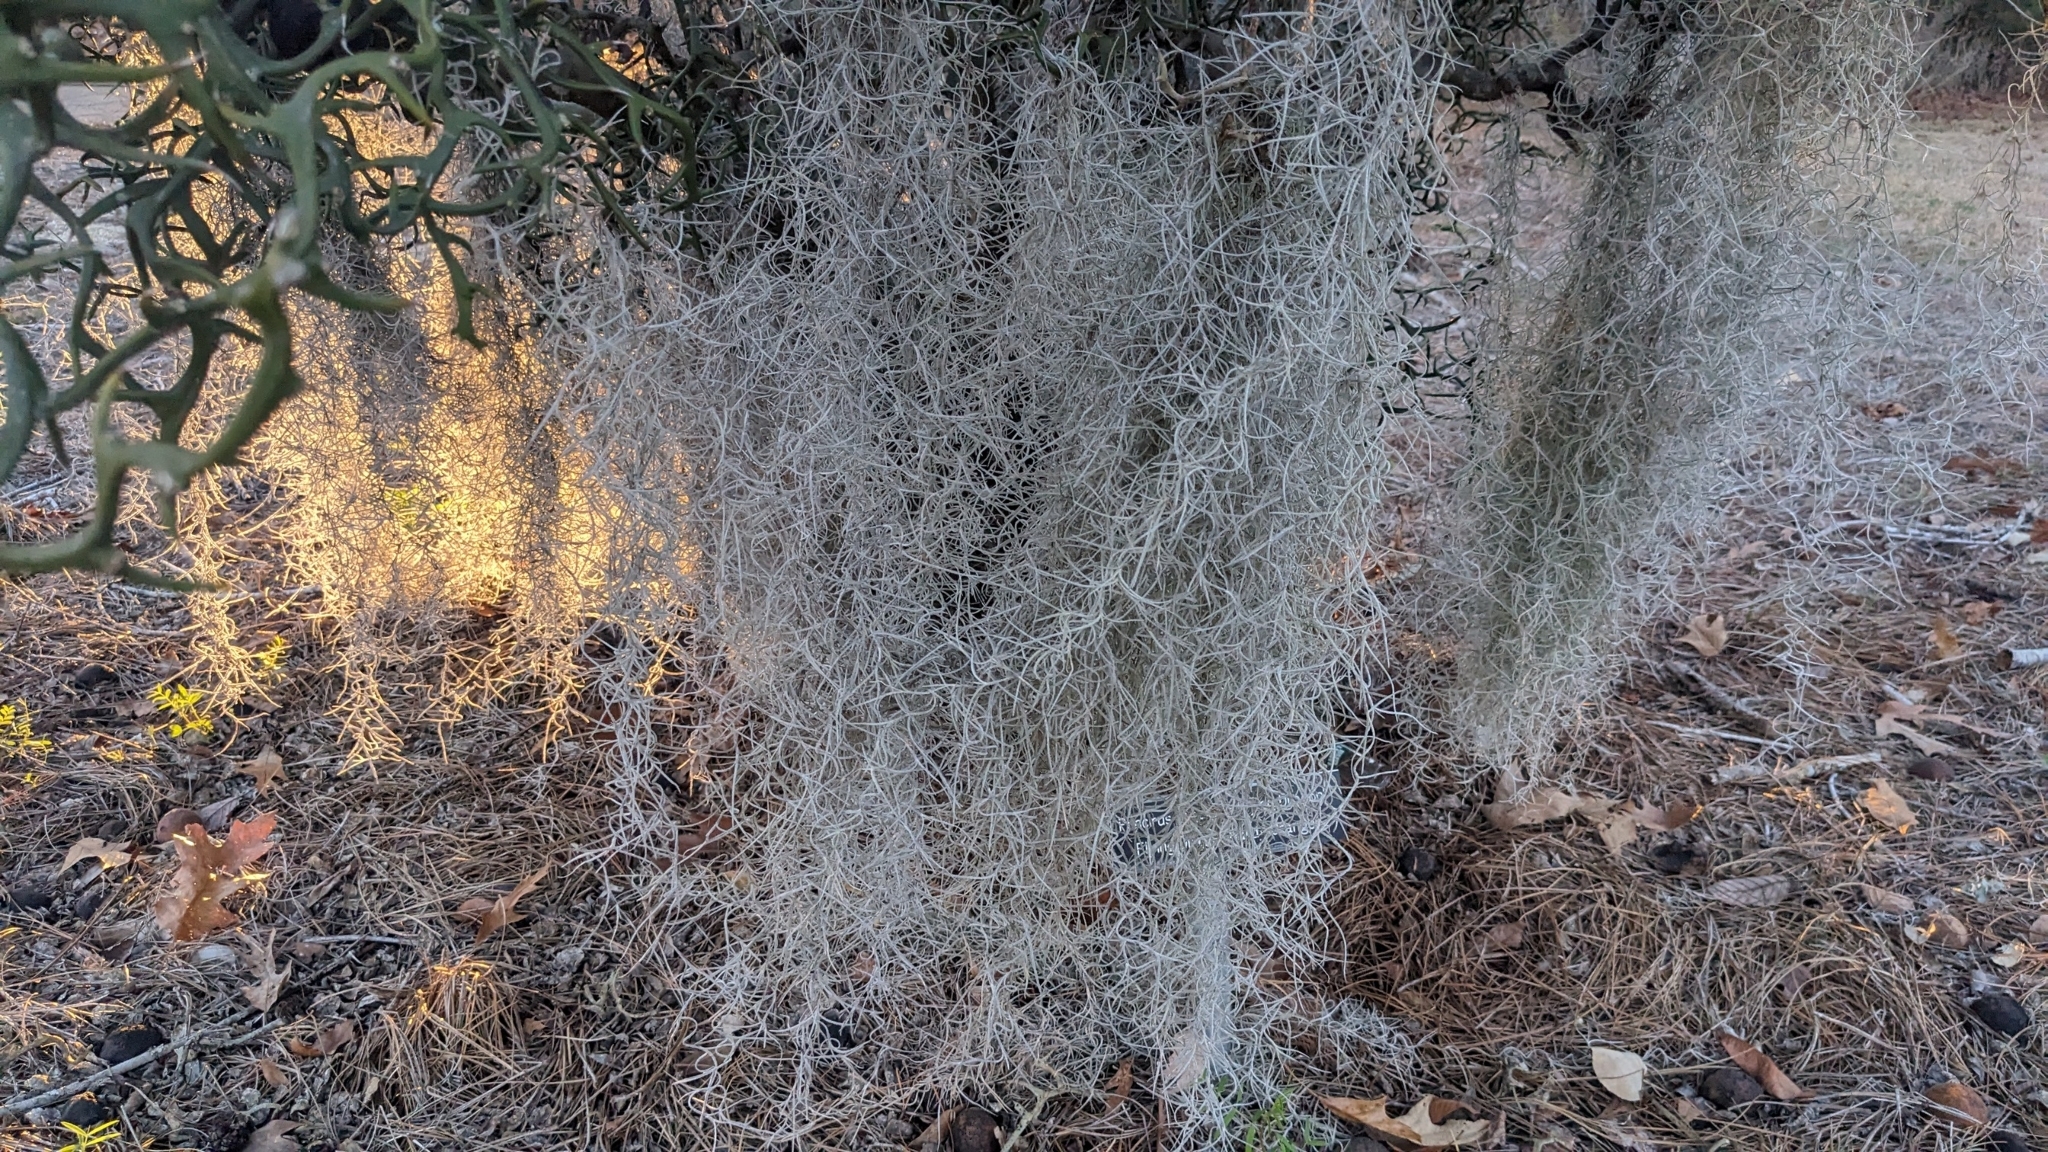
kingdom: Plantae
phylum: Tracheophyta
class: Liliopsida
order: Poales
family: Bromeliaceae
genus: Tillandsia
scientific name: Tillandsia usneoides
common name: Spanish moss
